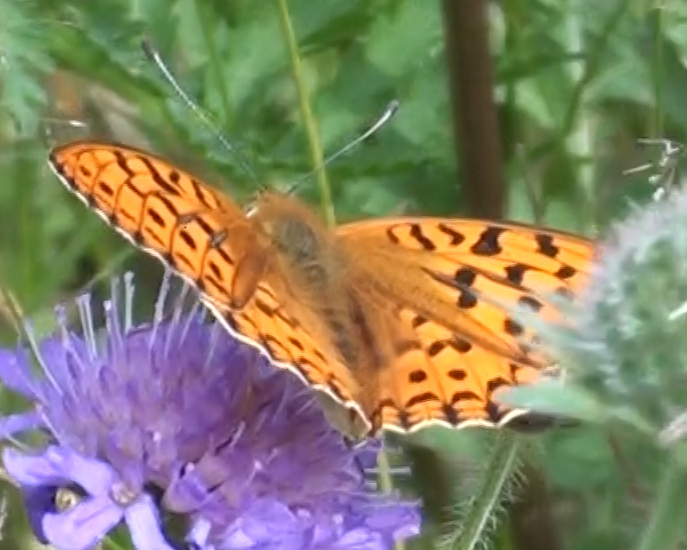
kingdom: Animalia
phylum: Arthropoda
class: Insecta
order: Lepidoptera
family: Nymphalidae
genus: Fabriciana
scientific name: Fabriciana adippe
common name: High brown fritillary
